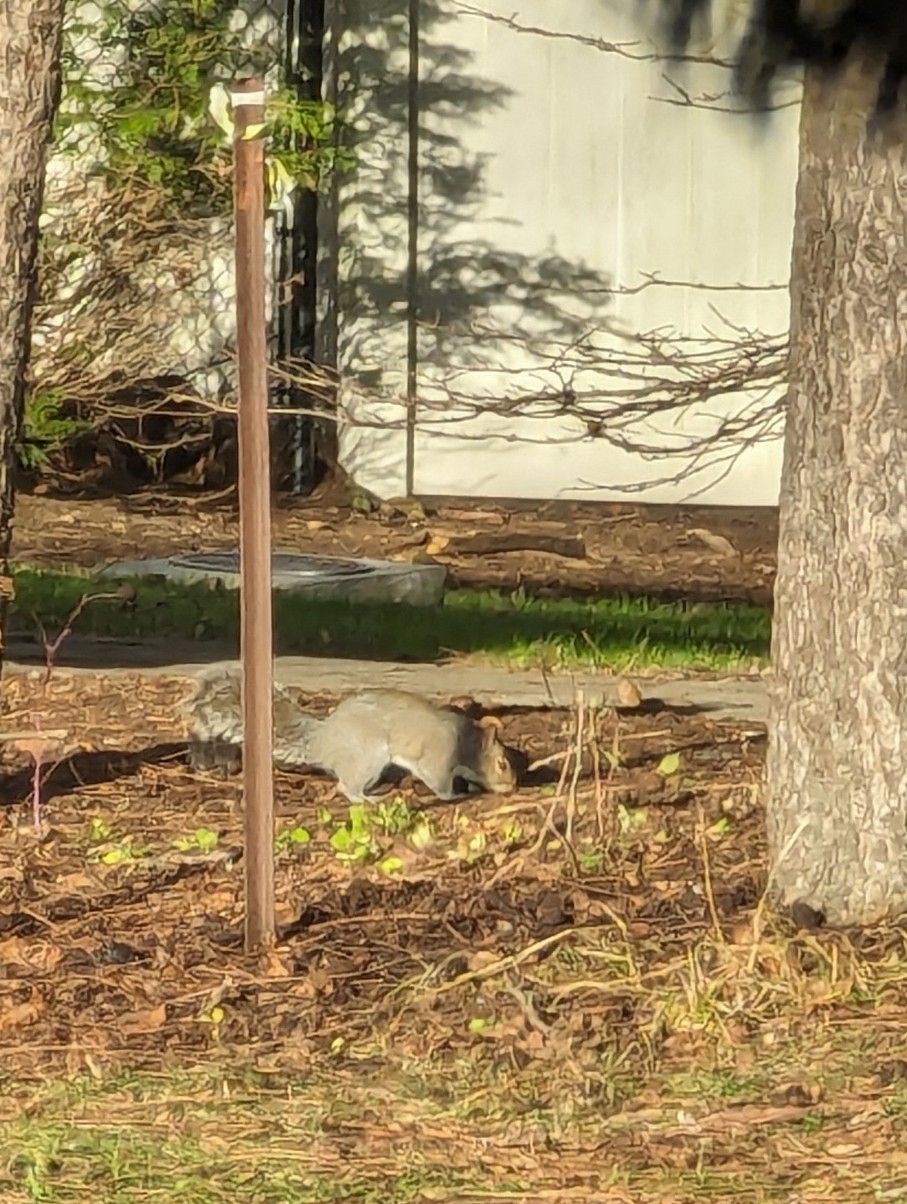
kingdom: Animalia
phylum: Chordata
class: Mammalia
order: Rodentia
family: Sciuridae
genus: Sciurus
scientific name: Sciurus carolinensis
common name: Eastern gray squirrel
